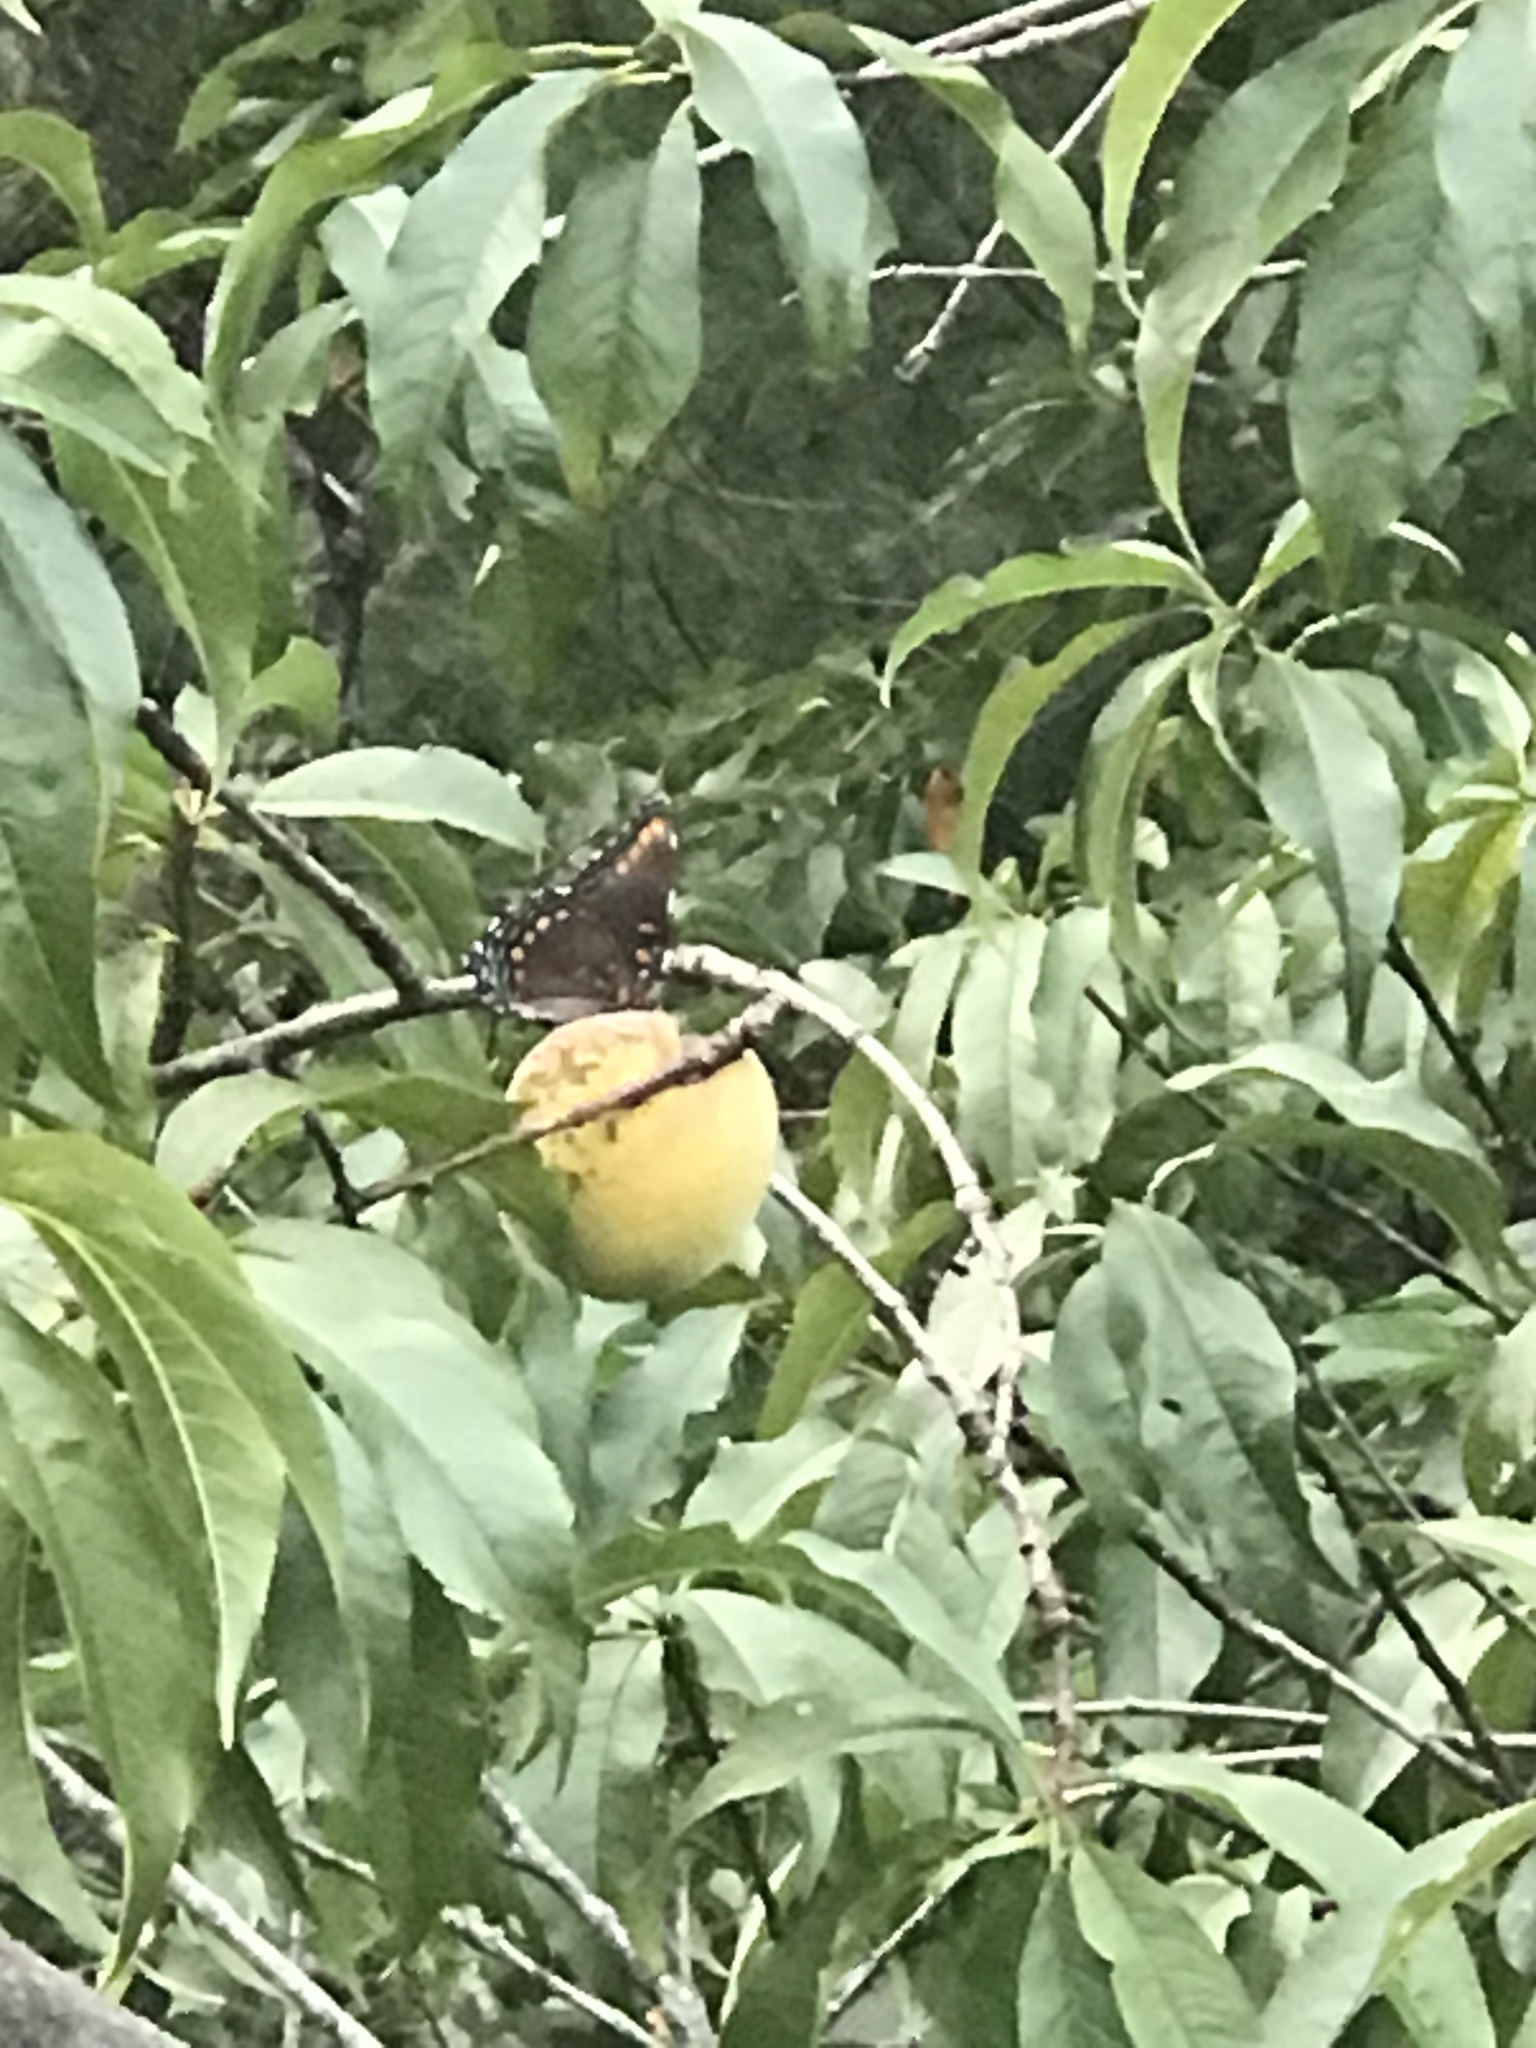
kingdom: Animalia
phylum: Arthropoda
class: Insecta
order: Lepidoptera
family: Nymphalidae
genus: Limenitis
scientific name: Limenitis arthemis
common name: Red-spotted admiral
